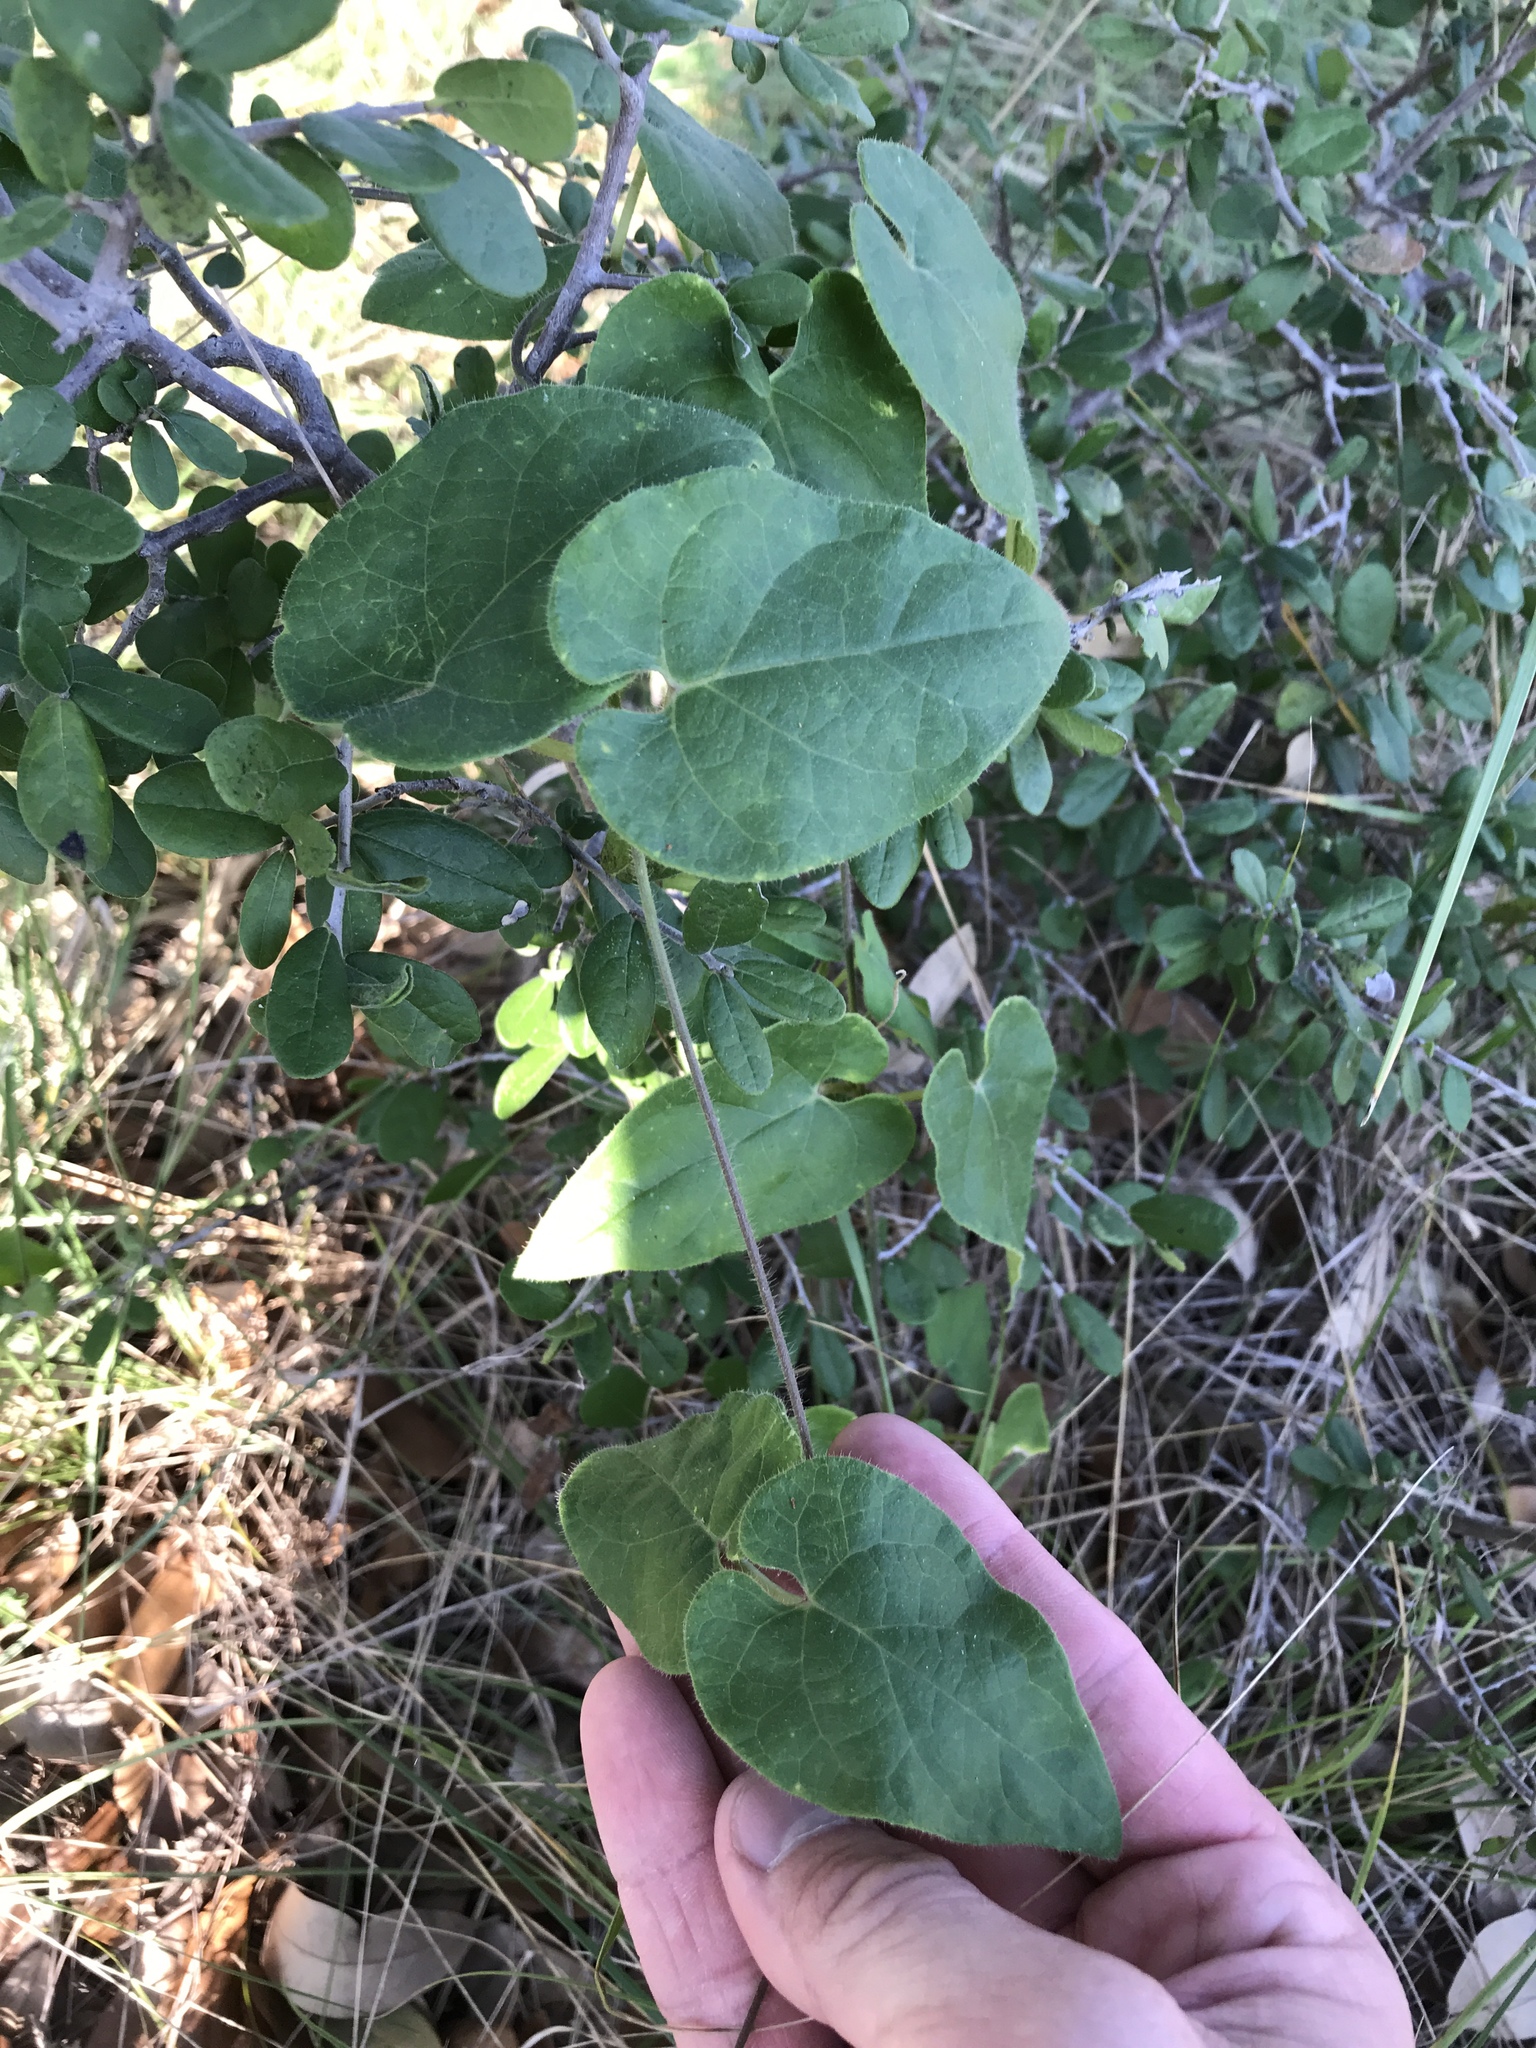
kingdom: Plantae
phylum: Tracheophyta
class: Magnoliopsida
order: Gentianales
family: Apocynaceae
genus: Dictyanthus
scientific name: Dictyanthus reticulatus
